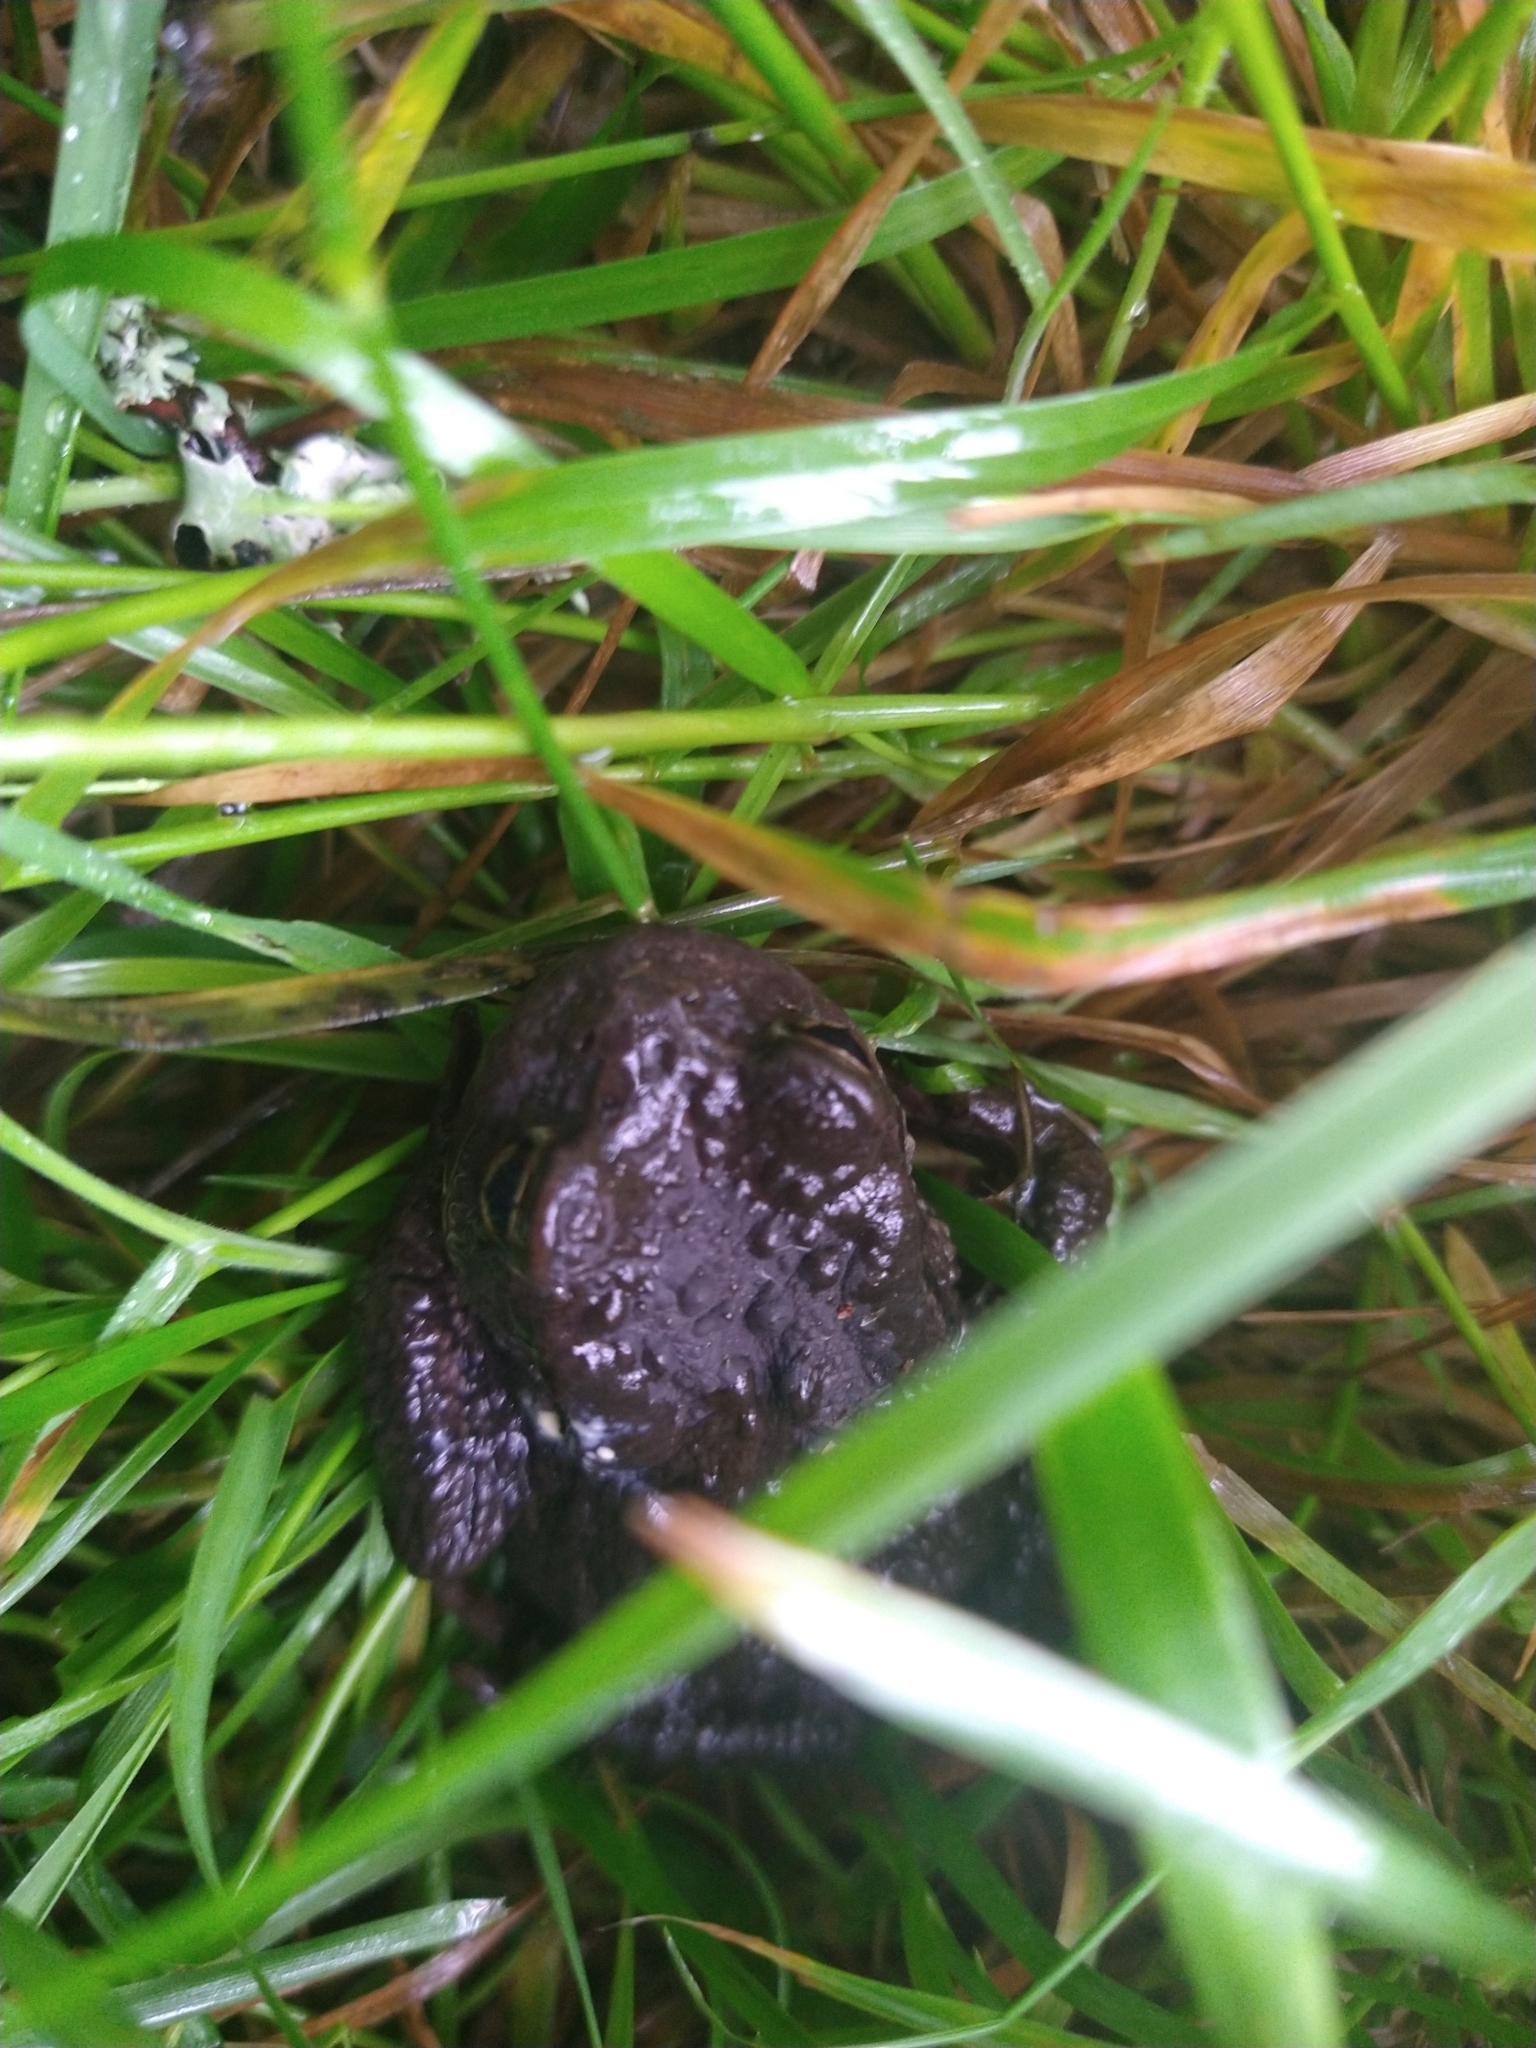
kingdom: Animalia
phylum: Chordata
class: Amphibia
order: Anura
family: Bufonidae
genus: Bufo
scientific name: Bufo bufo
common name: Common toad
